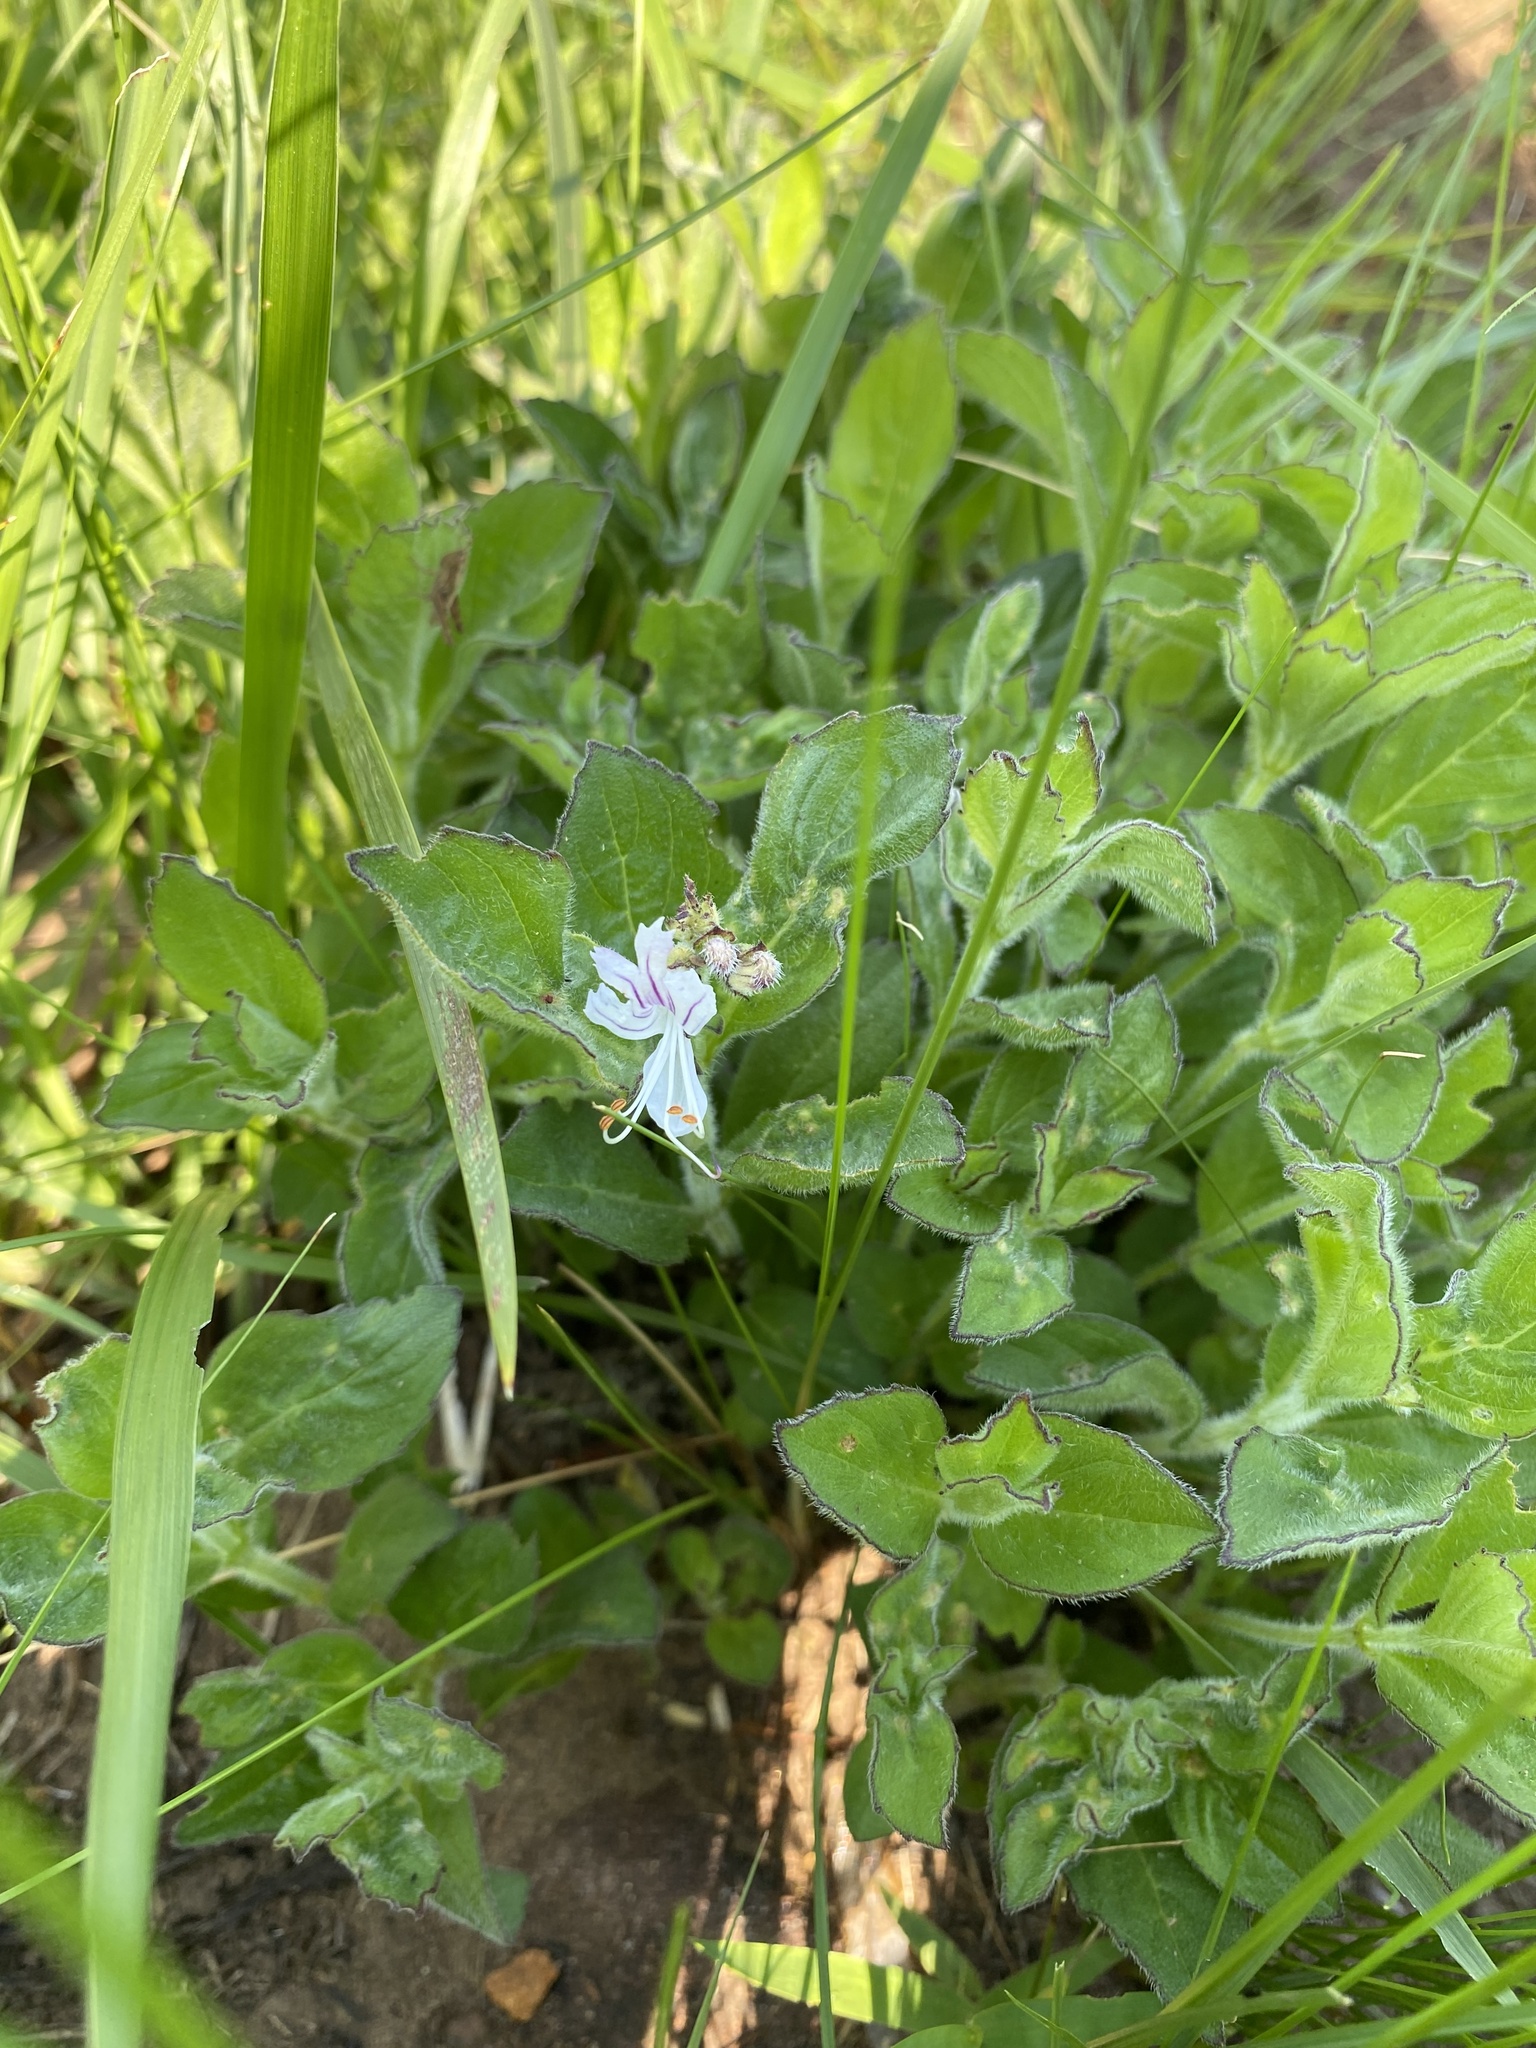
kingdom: Plantae
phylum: Tracheophyta
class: Magnoliopsida
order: Lamiales
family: Lamiaceae
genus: Ocimum
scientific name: Ocimum obovatum
